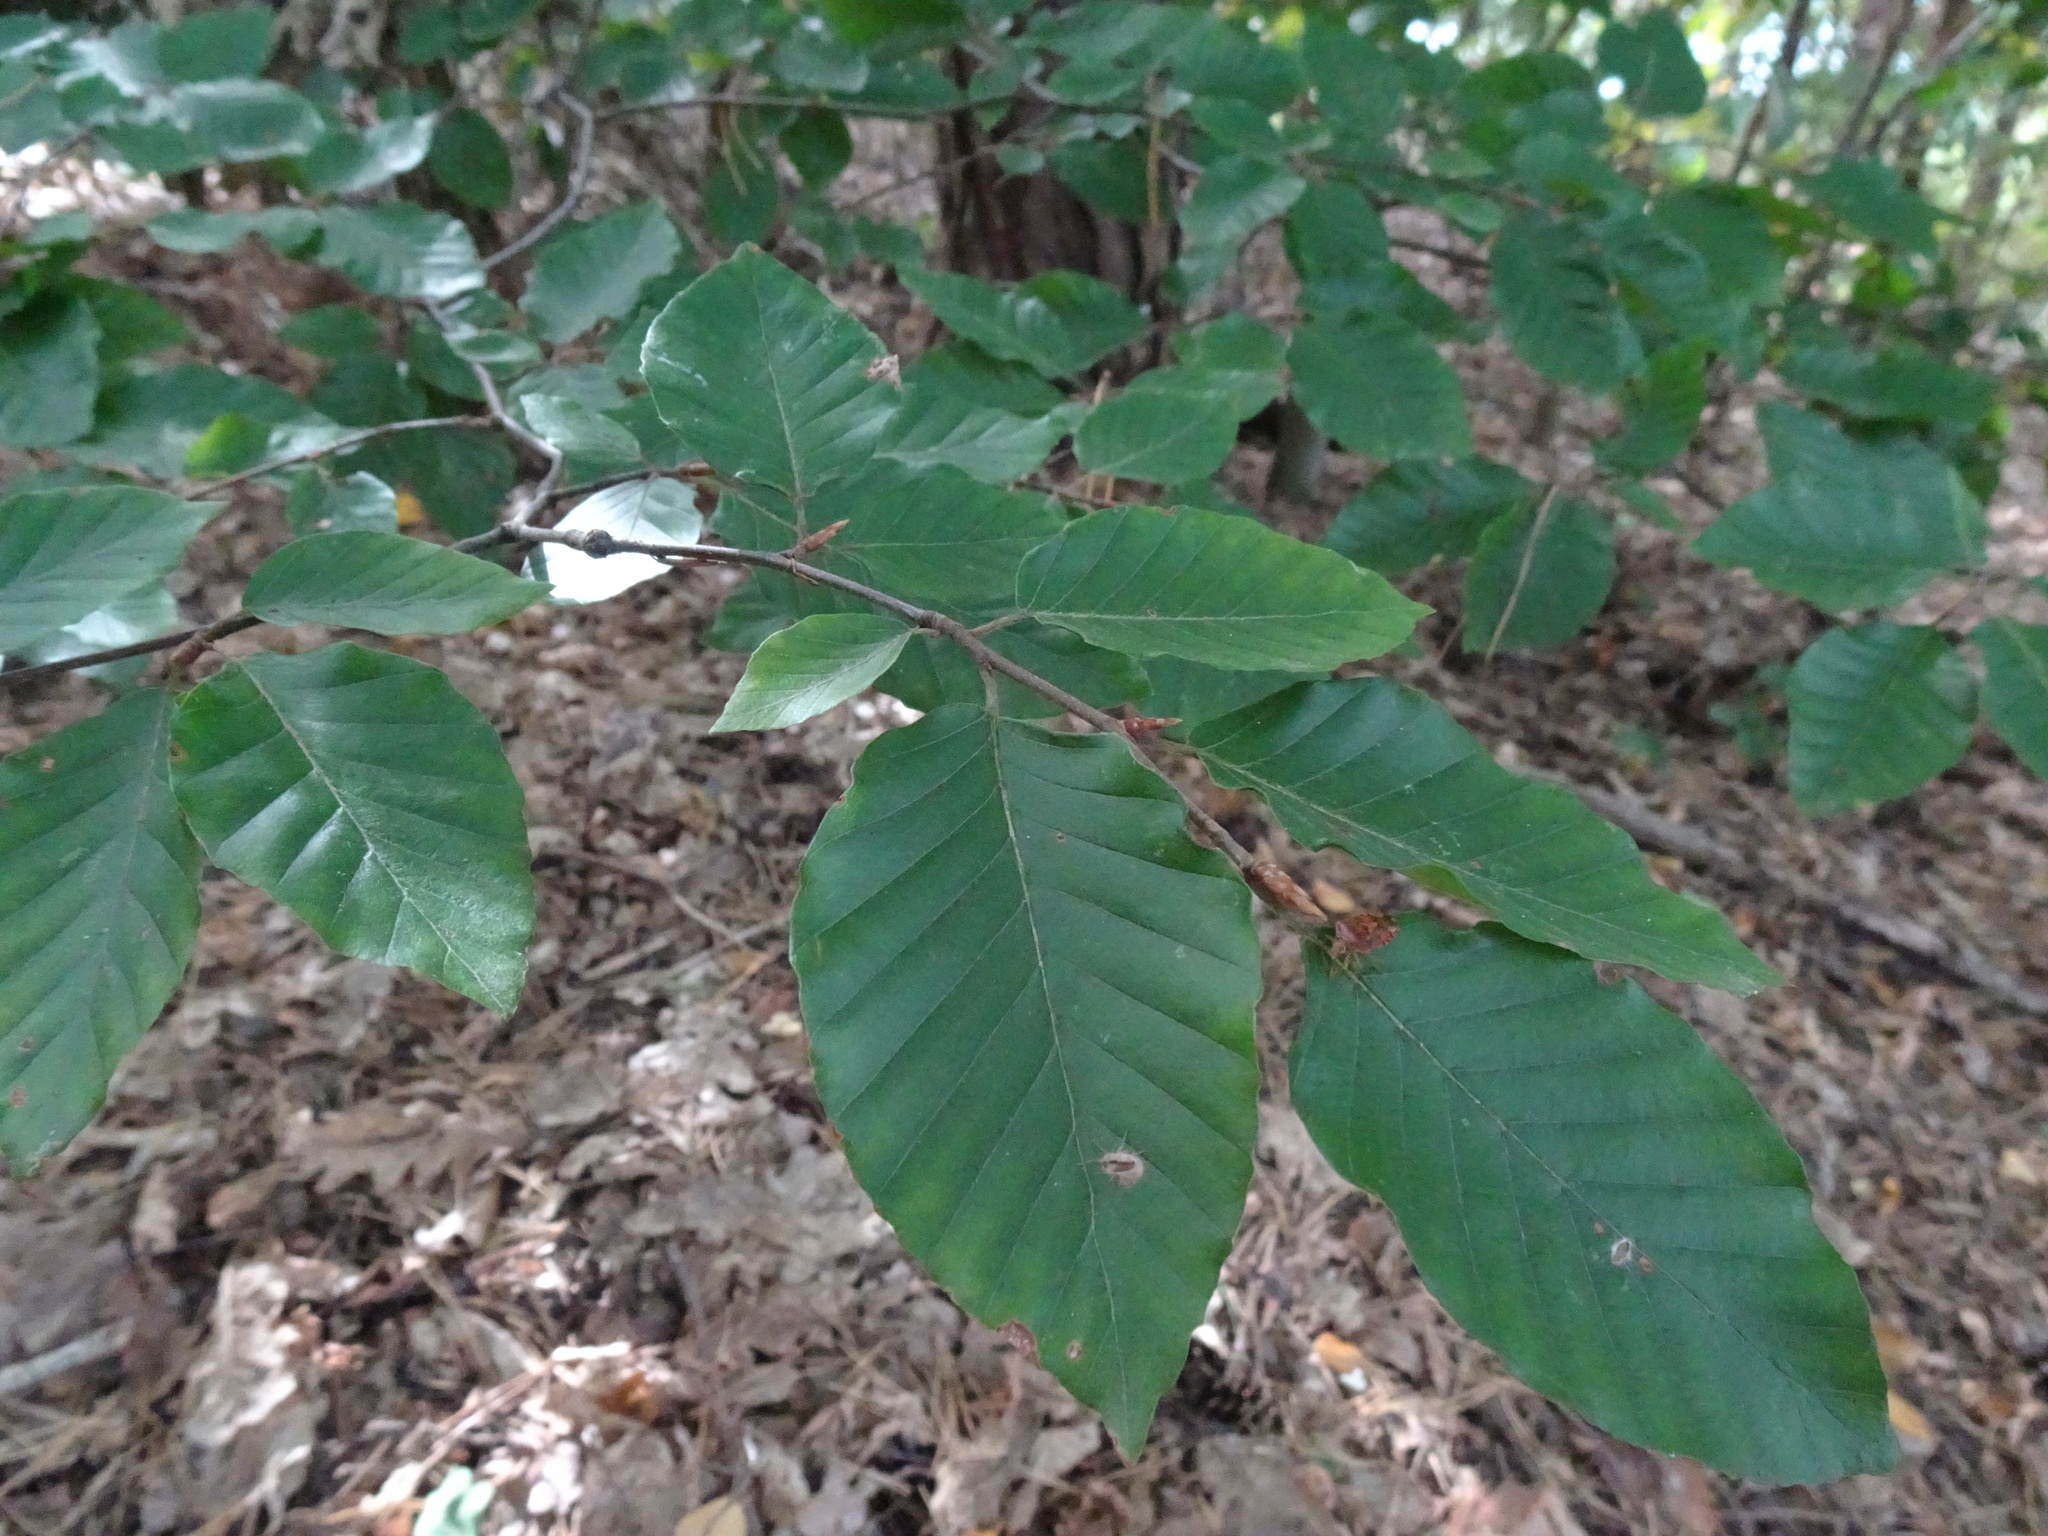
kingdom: Plantae
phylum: Tracheophyta
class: Magnoliopsida
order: Fagales
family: Fagaceae
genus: Fagus
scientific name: Fagus sylvatica
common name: Beech
